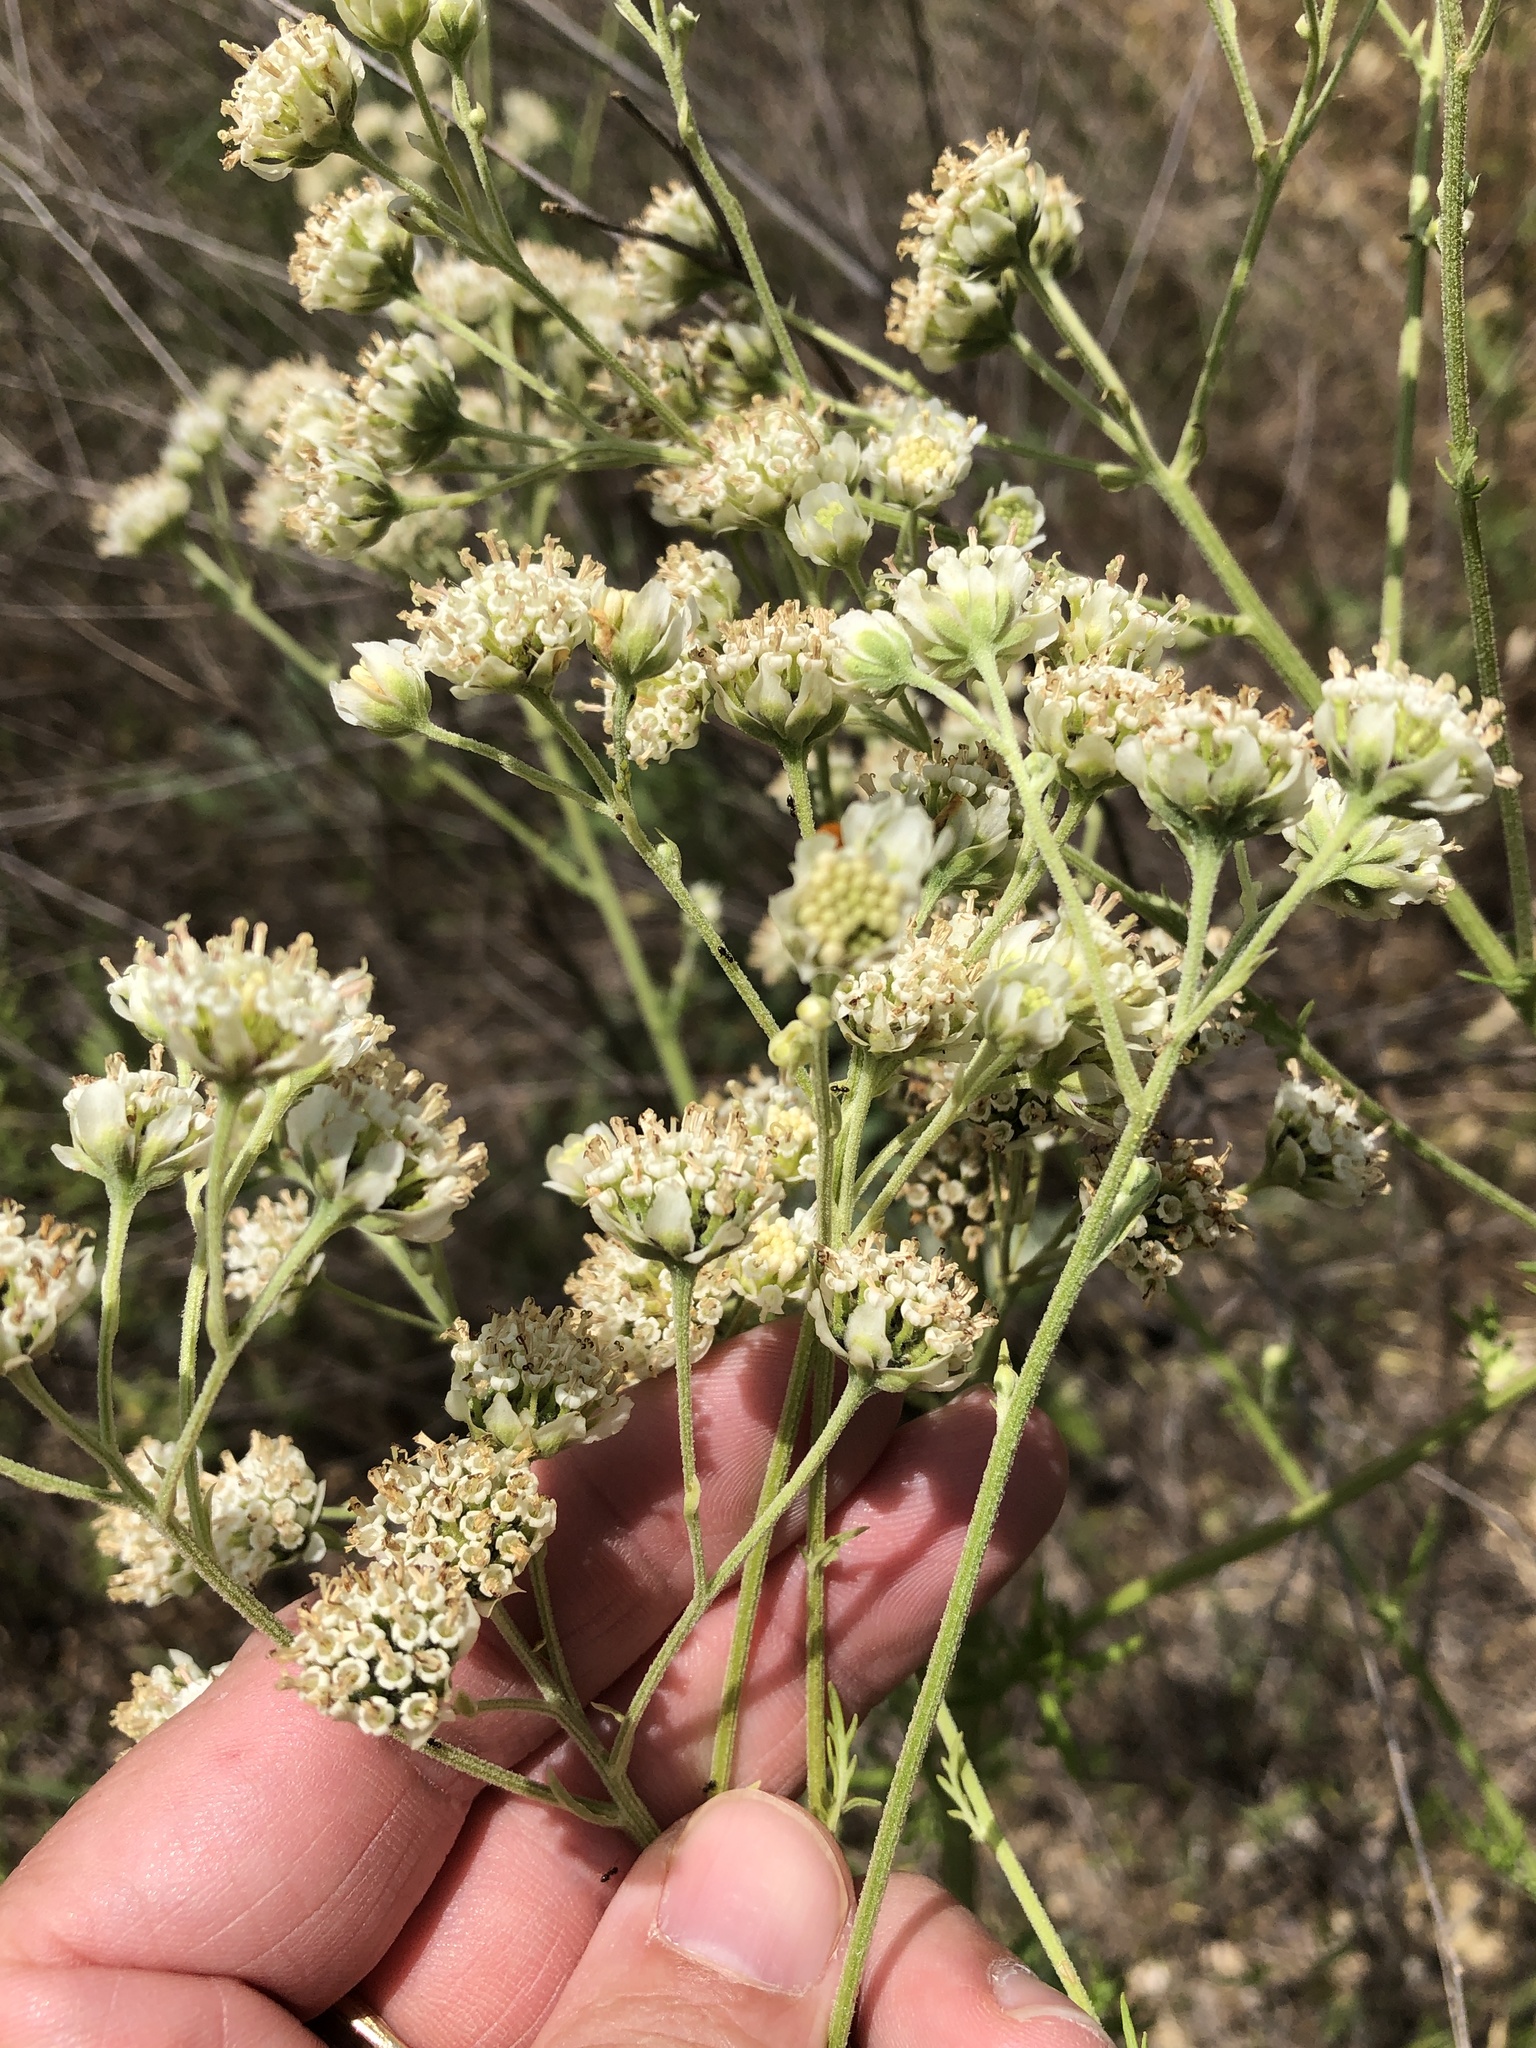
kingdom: Plantae
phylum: Tracheophyta
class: Magnoliopsida
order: Asterales
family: Asteraceae
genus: Hymenopappus
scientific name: Hymenopappus scabiosaeus
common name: Carolina woollywhite
